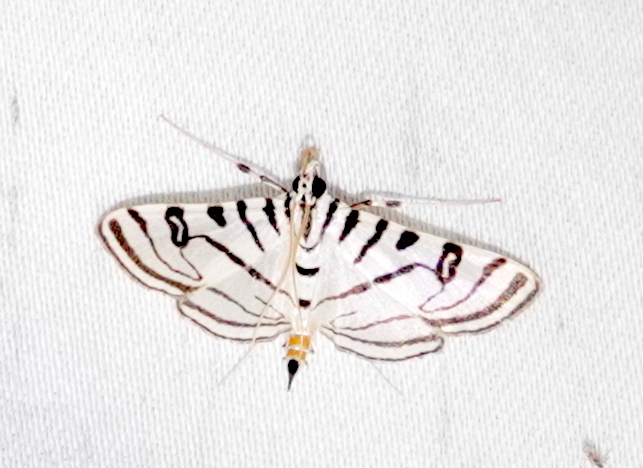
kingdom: Animalia
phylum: Arthropoda
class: Insecta
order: Lepidoptera
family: Crambidae
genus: Conchylodes
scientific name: Conchylodes ovulalis
